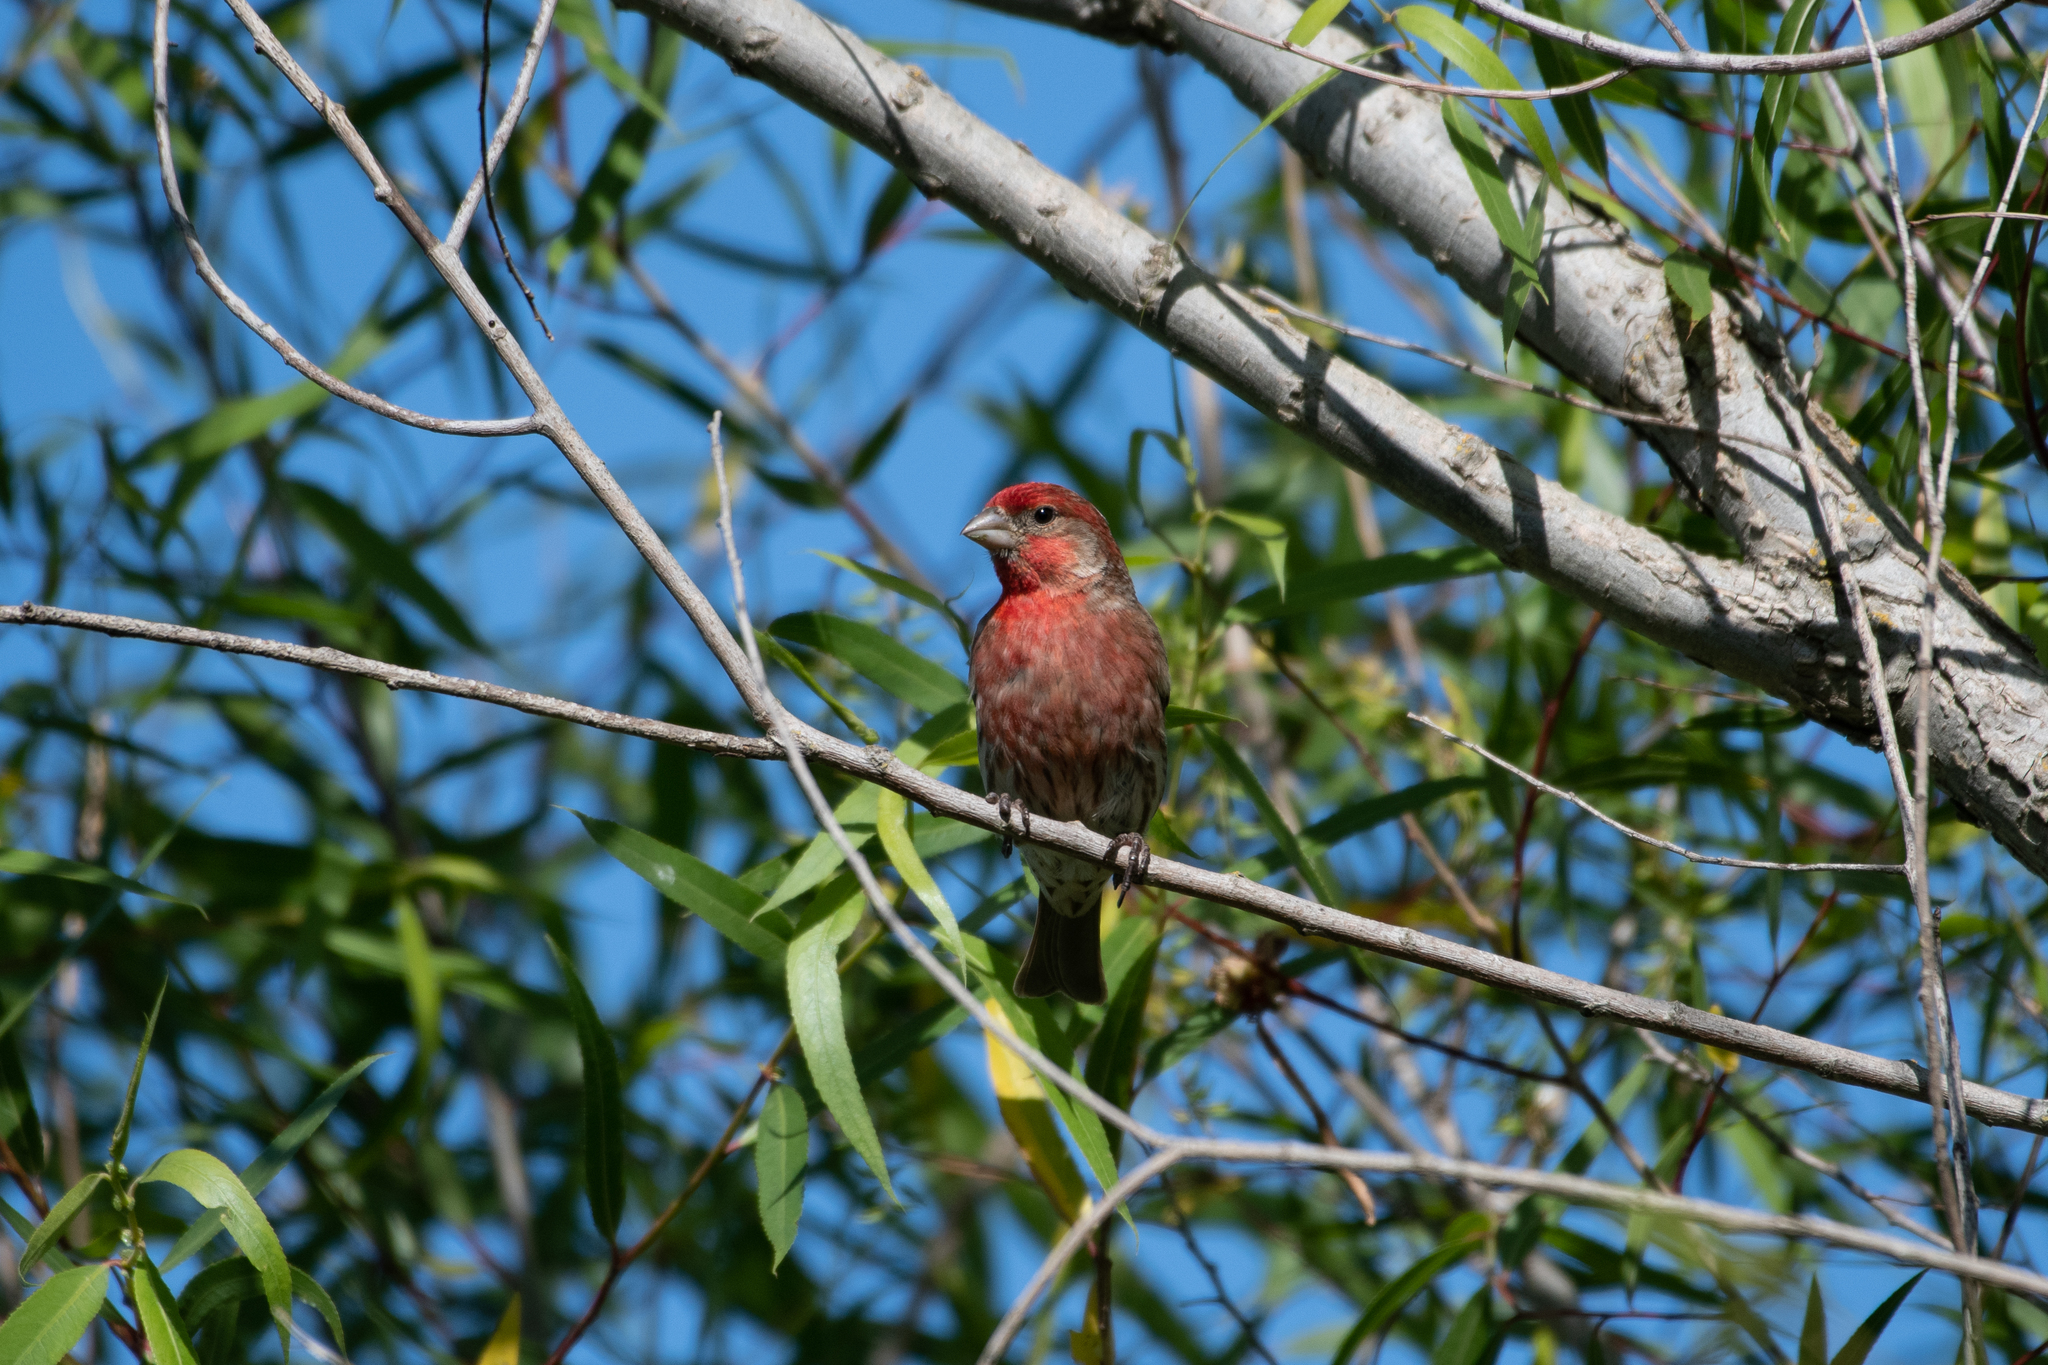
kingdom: Animalia
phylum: Chordata
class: Aves
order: Passeriformes
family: Fringillidae
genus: Haemorhous
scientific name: Haemorhous mexicanus
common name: House finch
